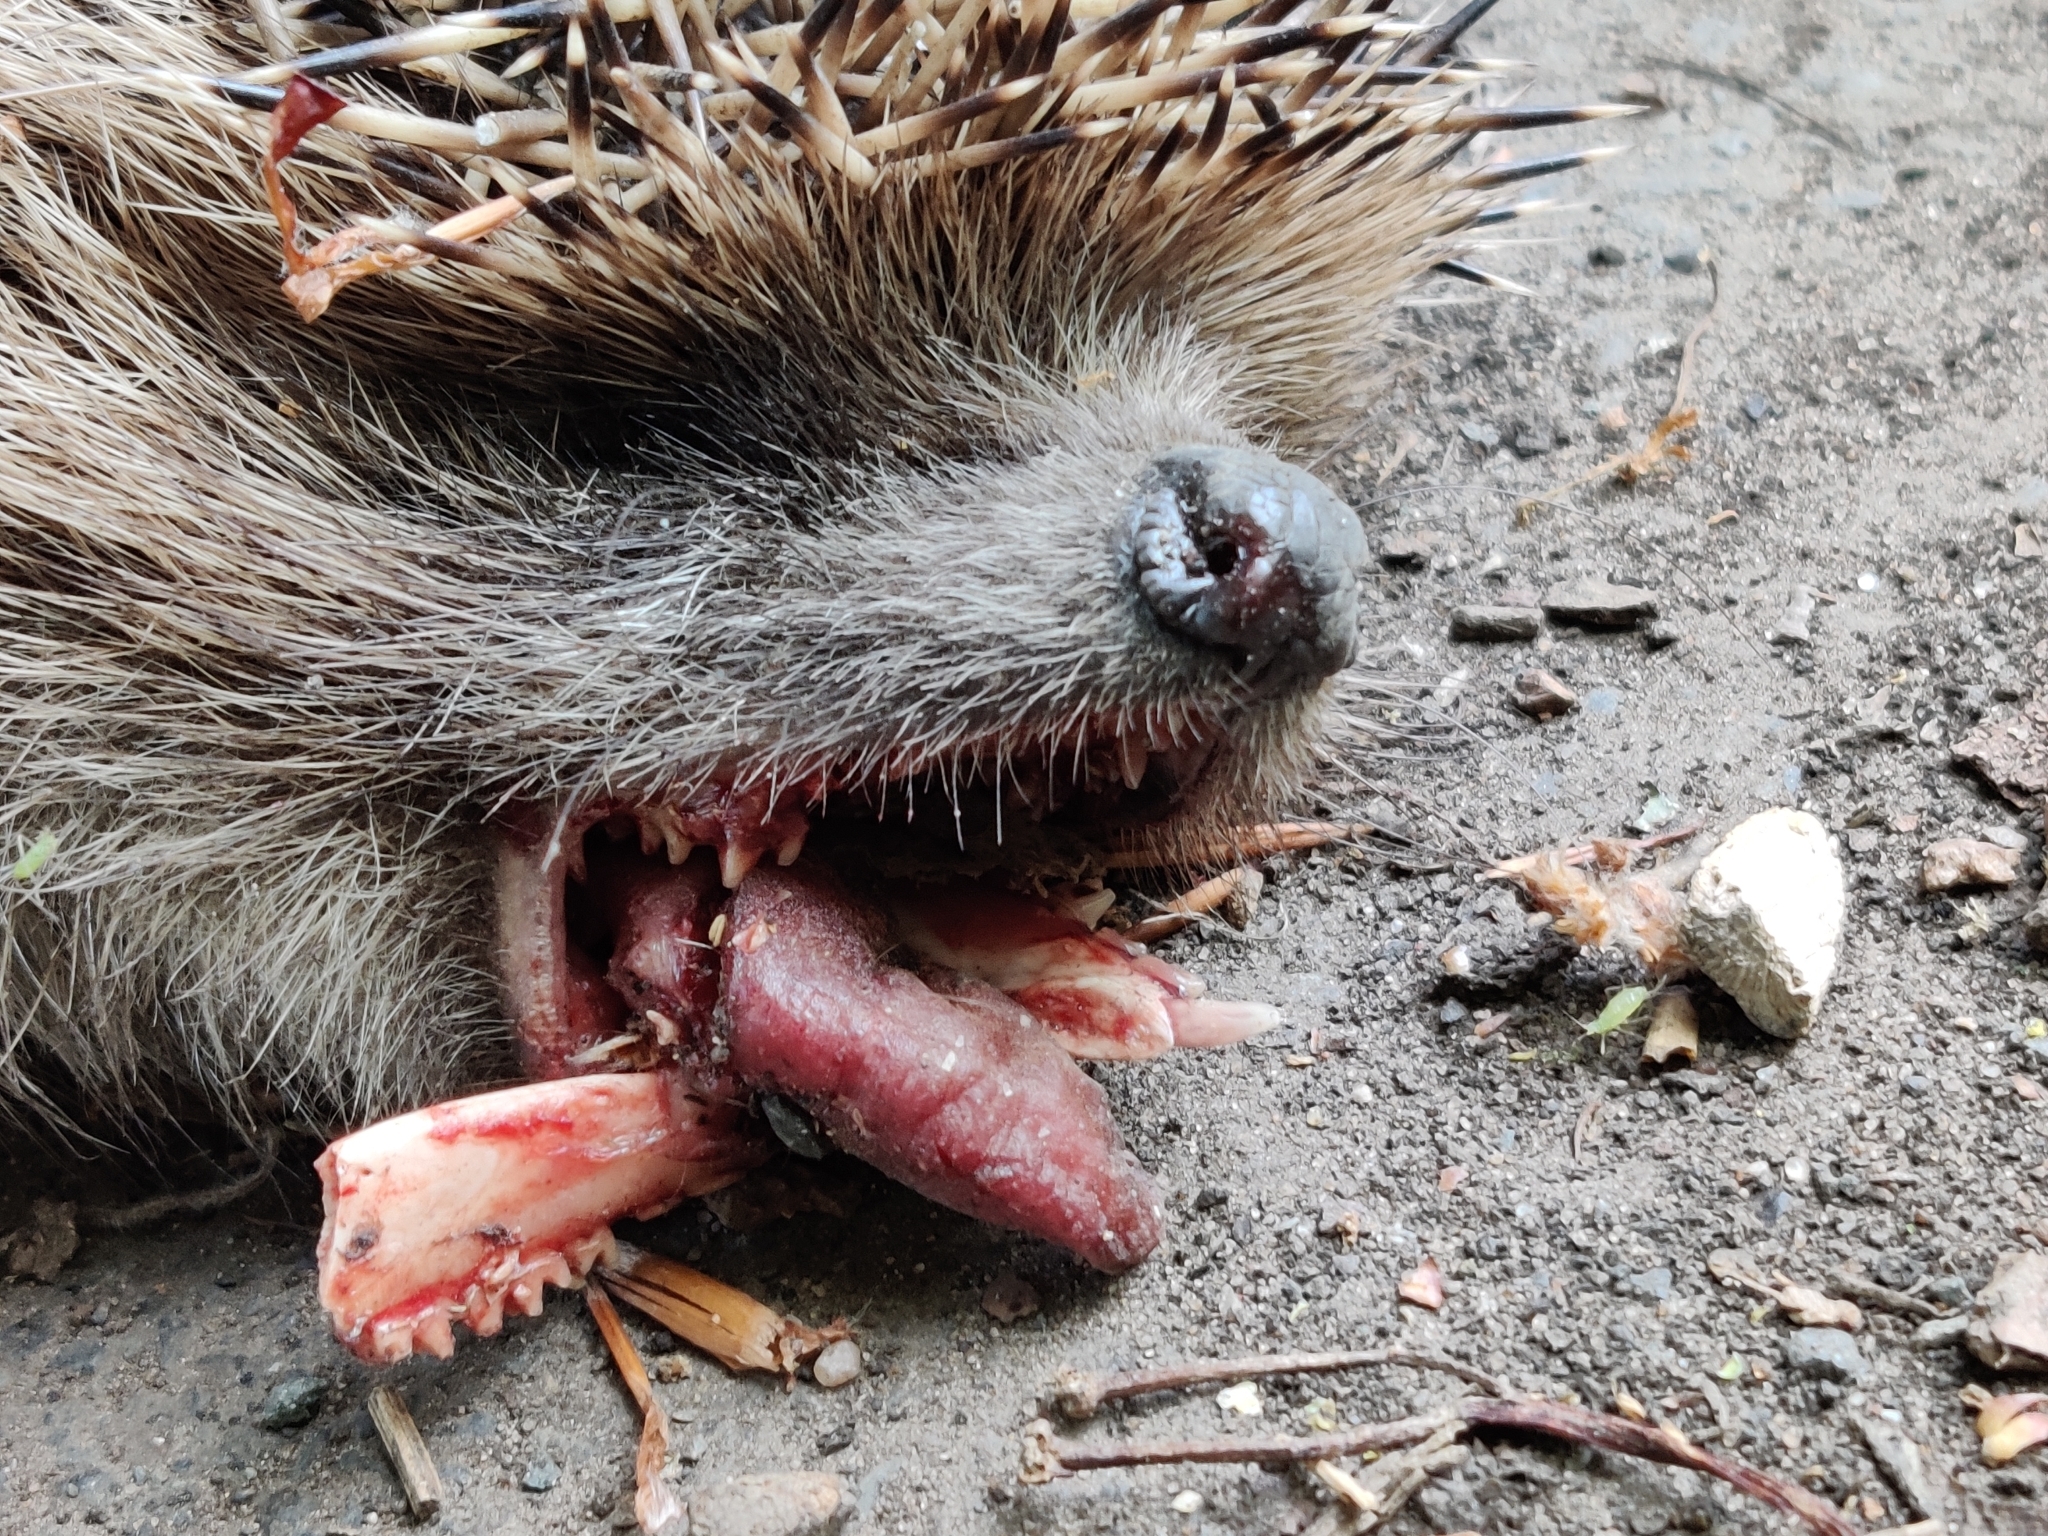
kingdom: Animalia
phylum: Chordata
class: Mammalia
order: Erinaceomorpha
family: Erinaceidae
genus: Erinaceus
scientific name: Erinaceus europaeus
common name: West european hedgehog
